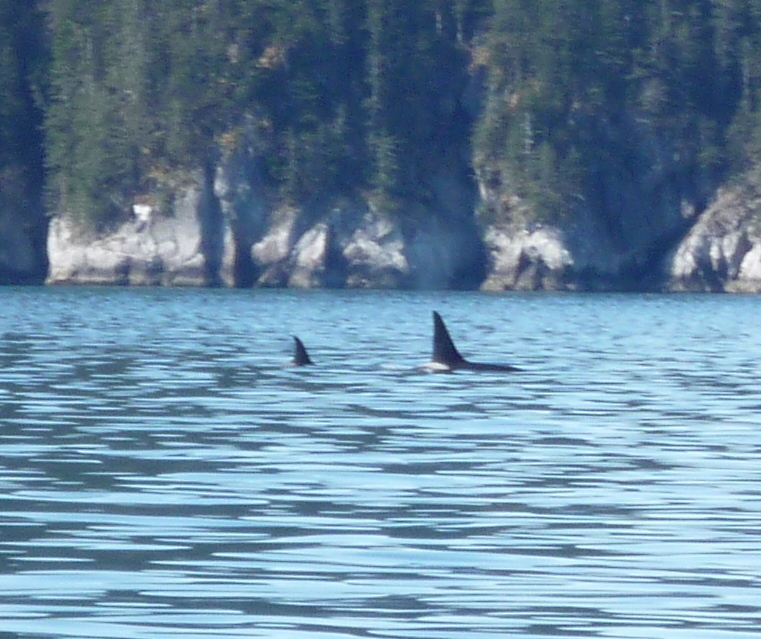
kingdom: Animalia
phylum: Chordata
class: Mammalia
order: Cetacea
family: Delphinidae
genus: Orcinus
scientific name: Orcinus orca
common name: Killer whale
